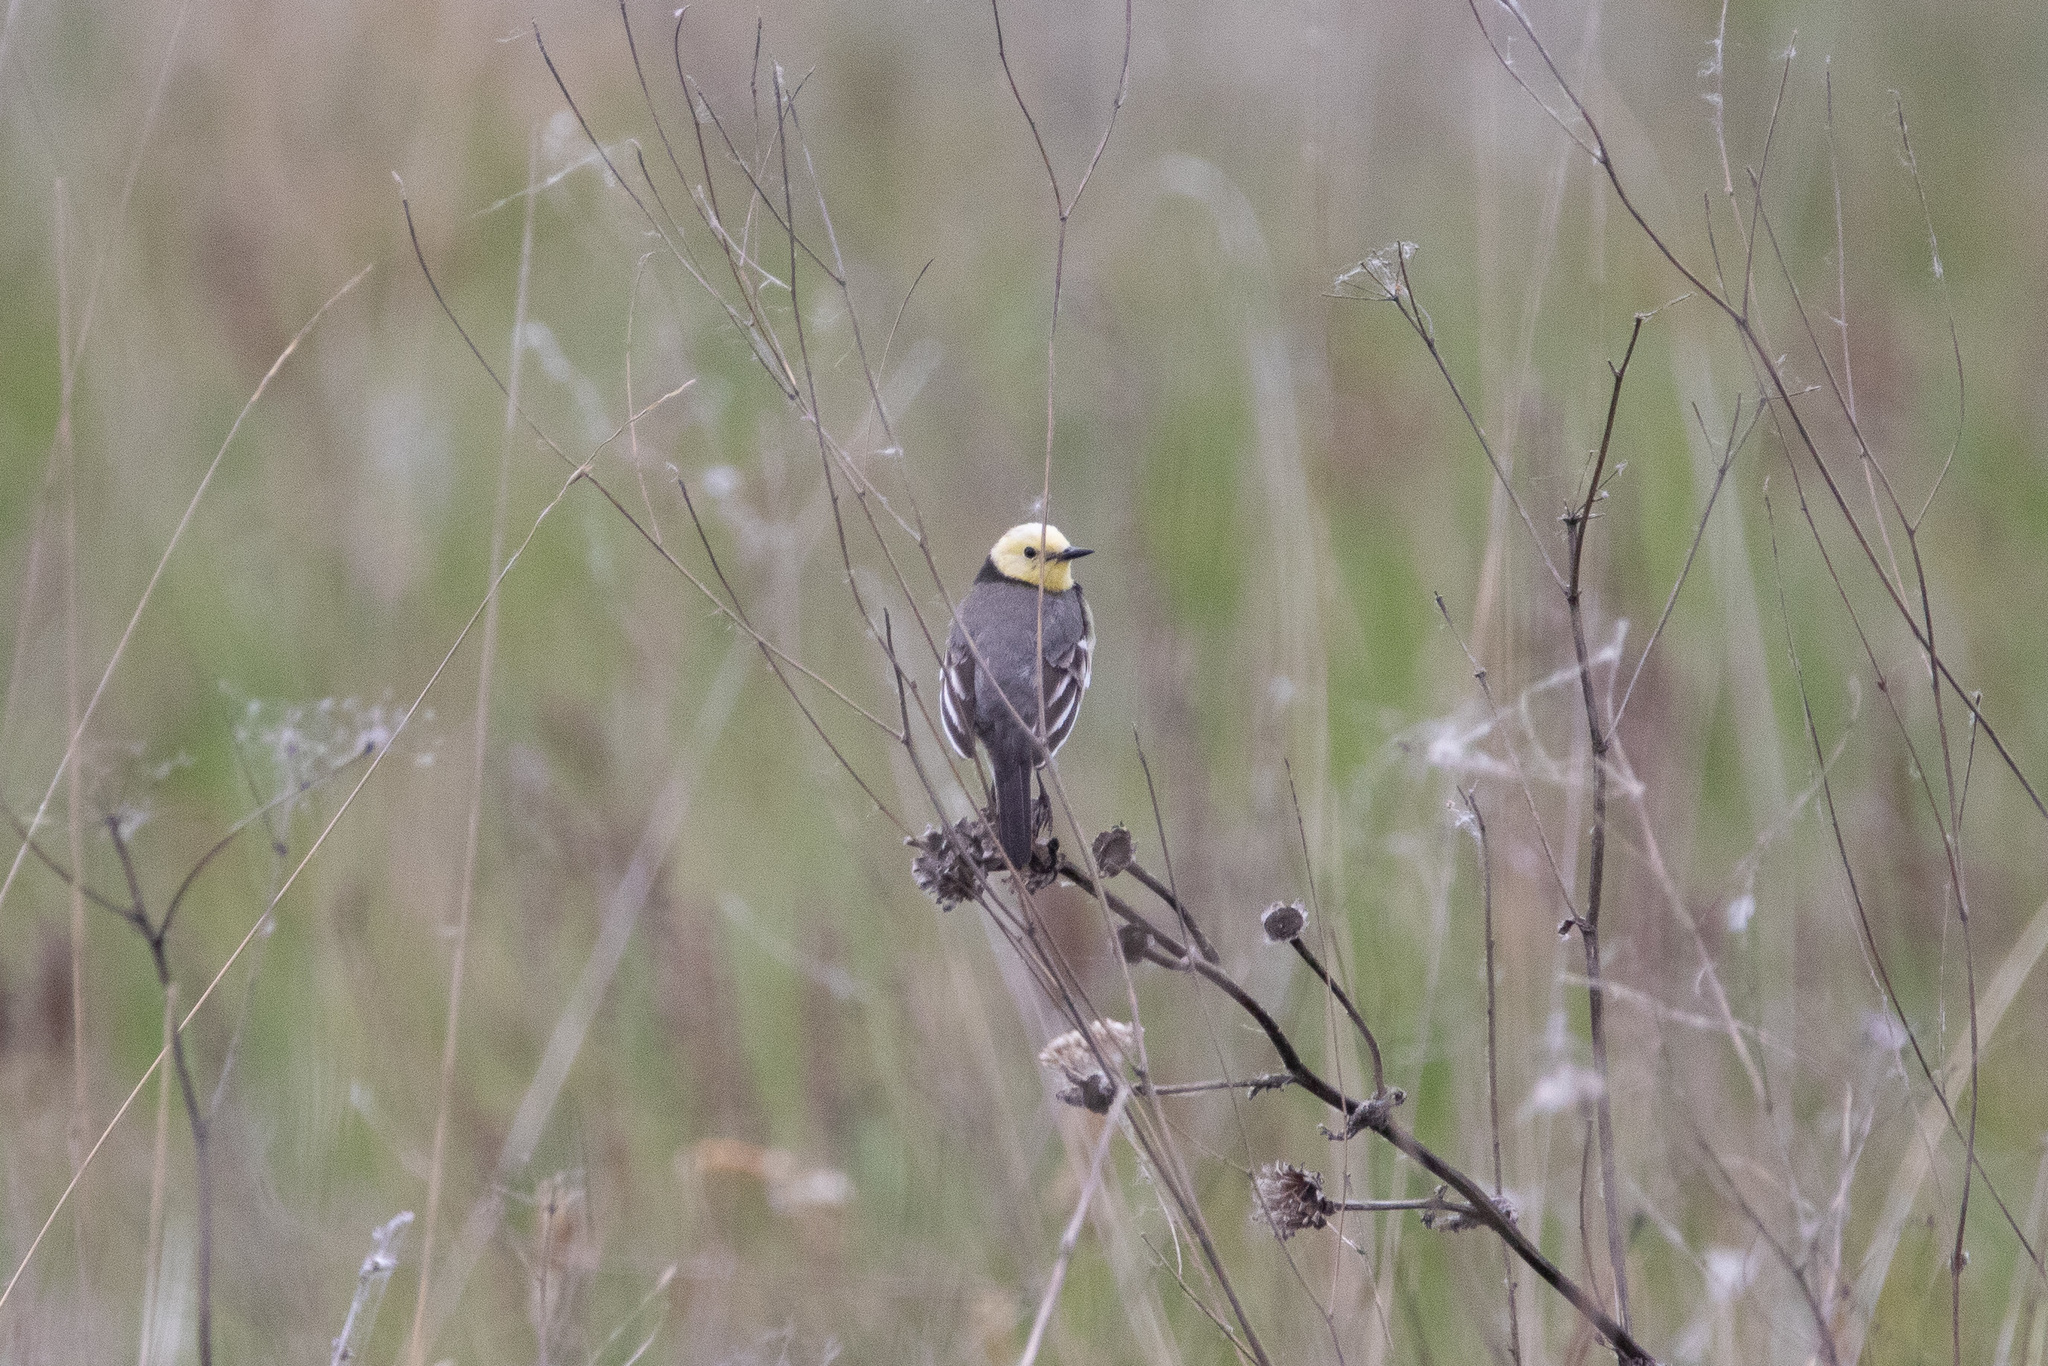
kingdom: Animalia
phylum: Chordata
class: Aves
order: Passeriformes
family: Motacillidae
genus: Motacilla
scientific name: Motacilla citreola
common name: Citrine wagtail
